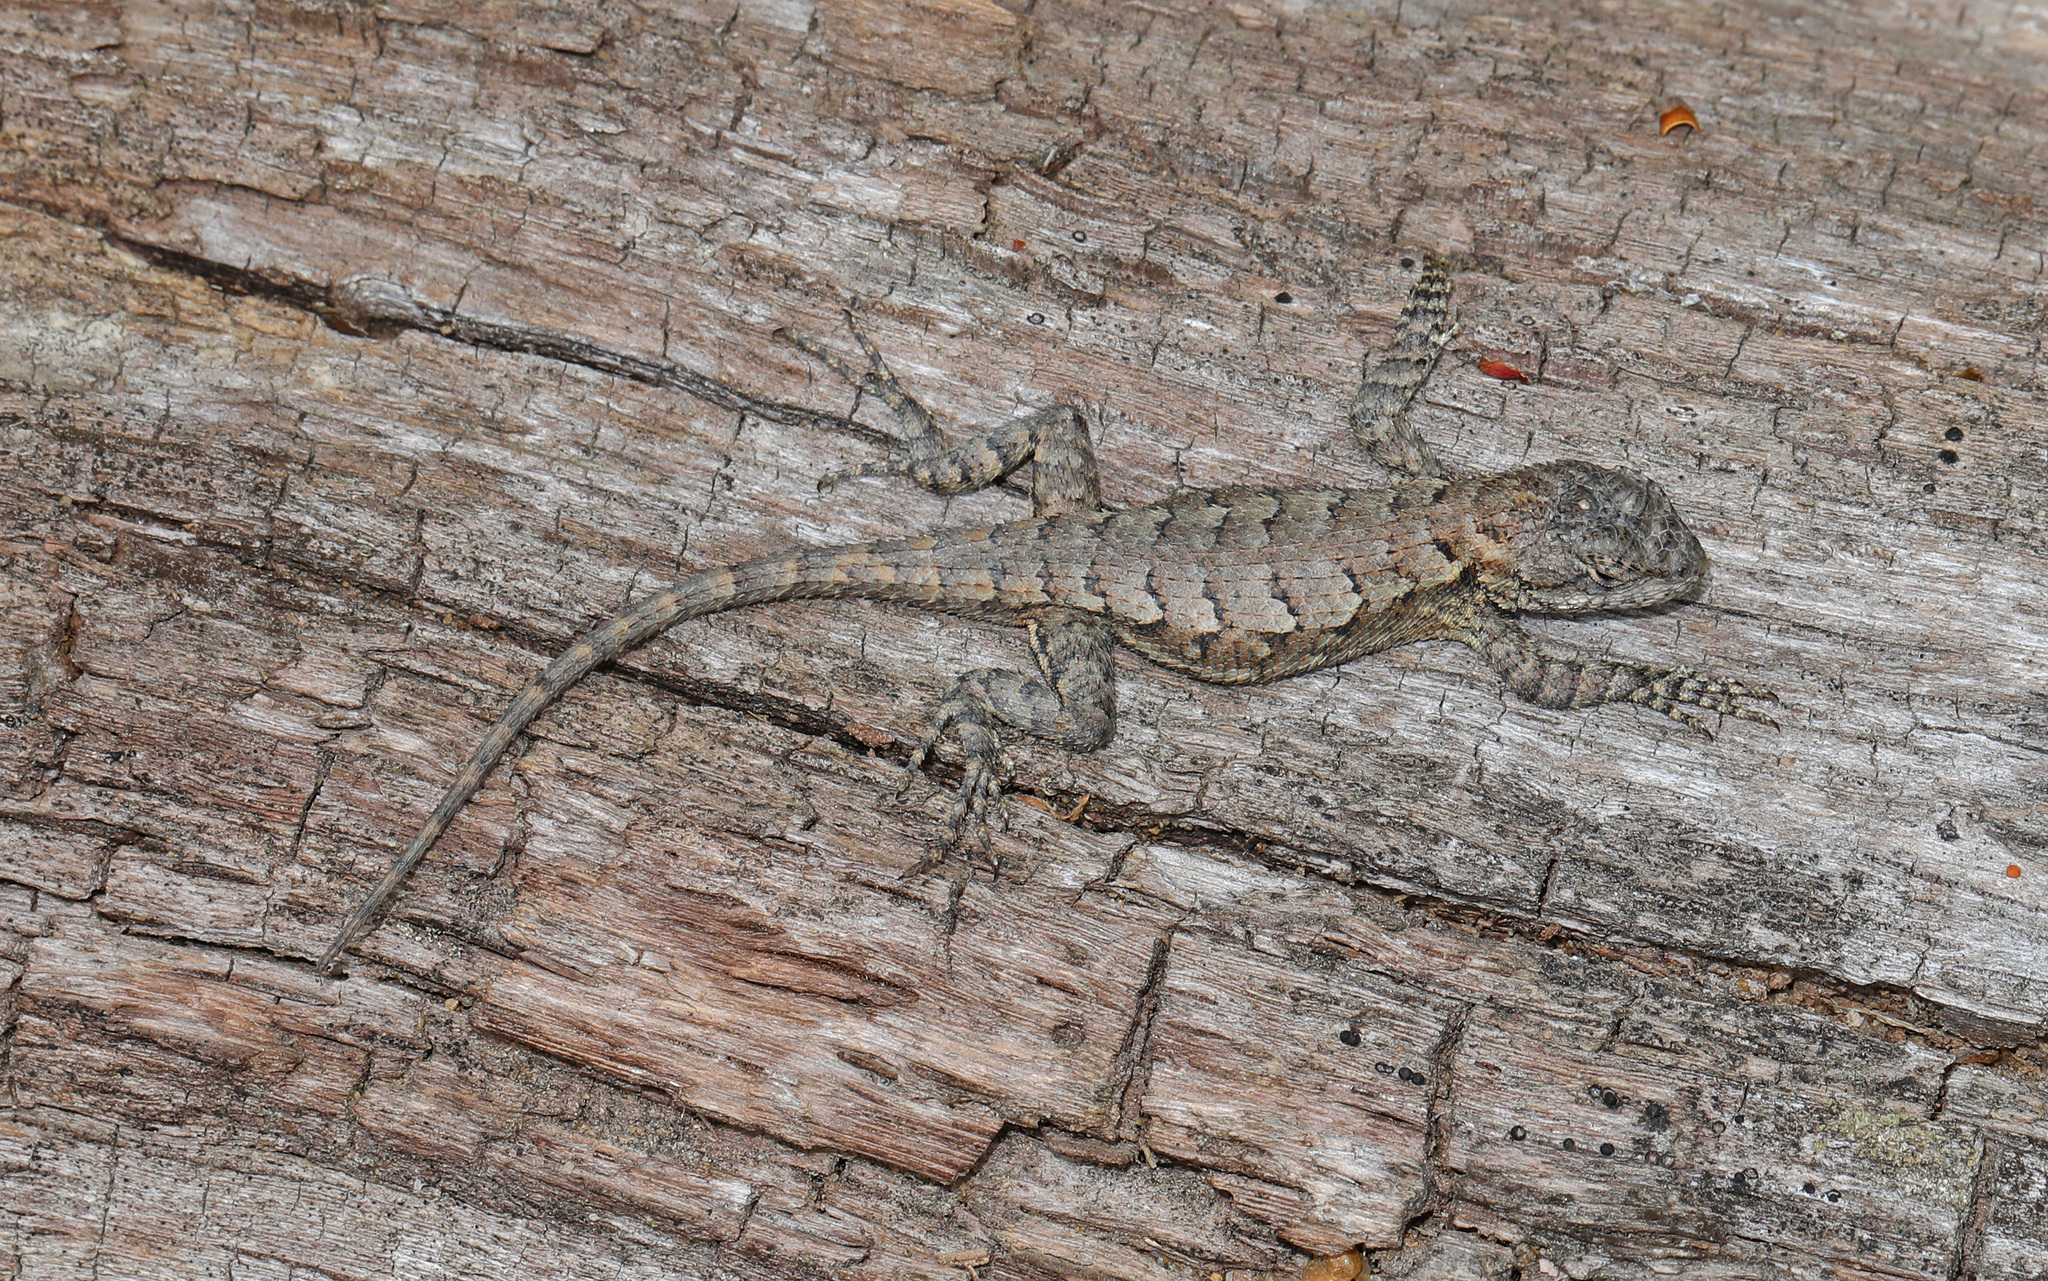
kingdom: Animalia
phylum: Chordata
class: Squamata
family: Phrynosomatidae
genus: Sceloporus
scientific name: Sceloporus undulatus
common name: Eastern fence lizard
